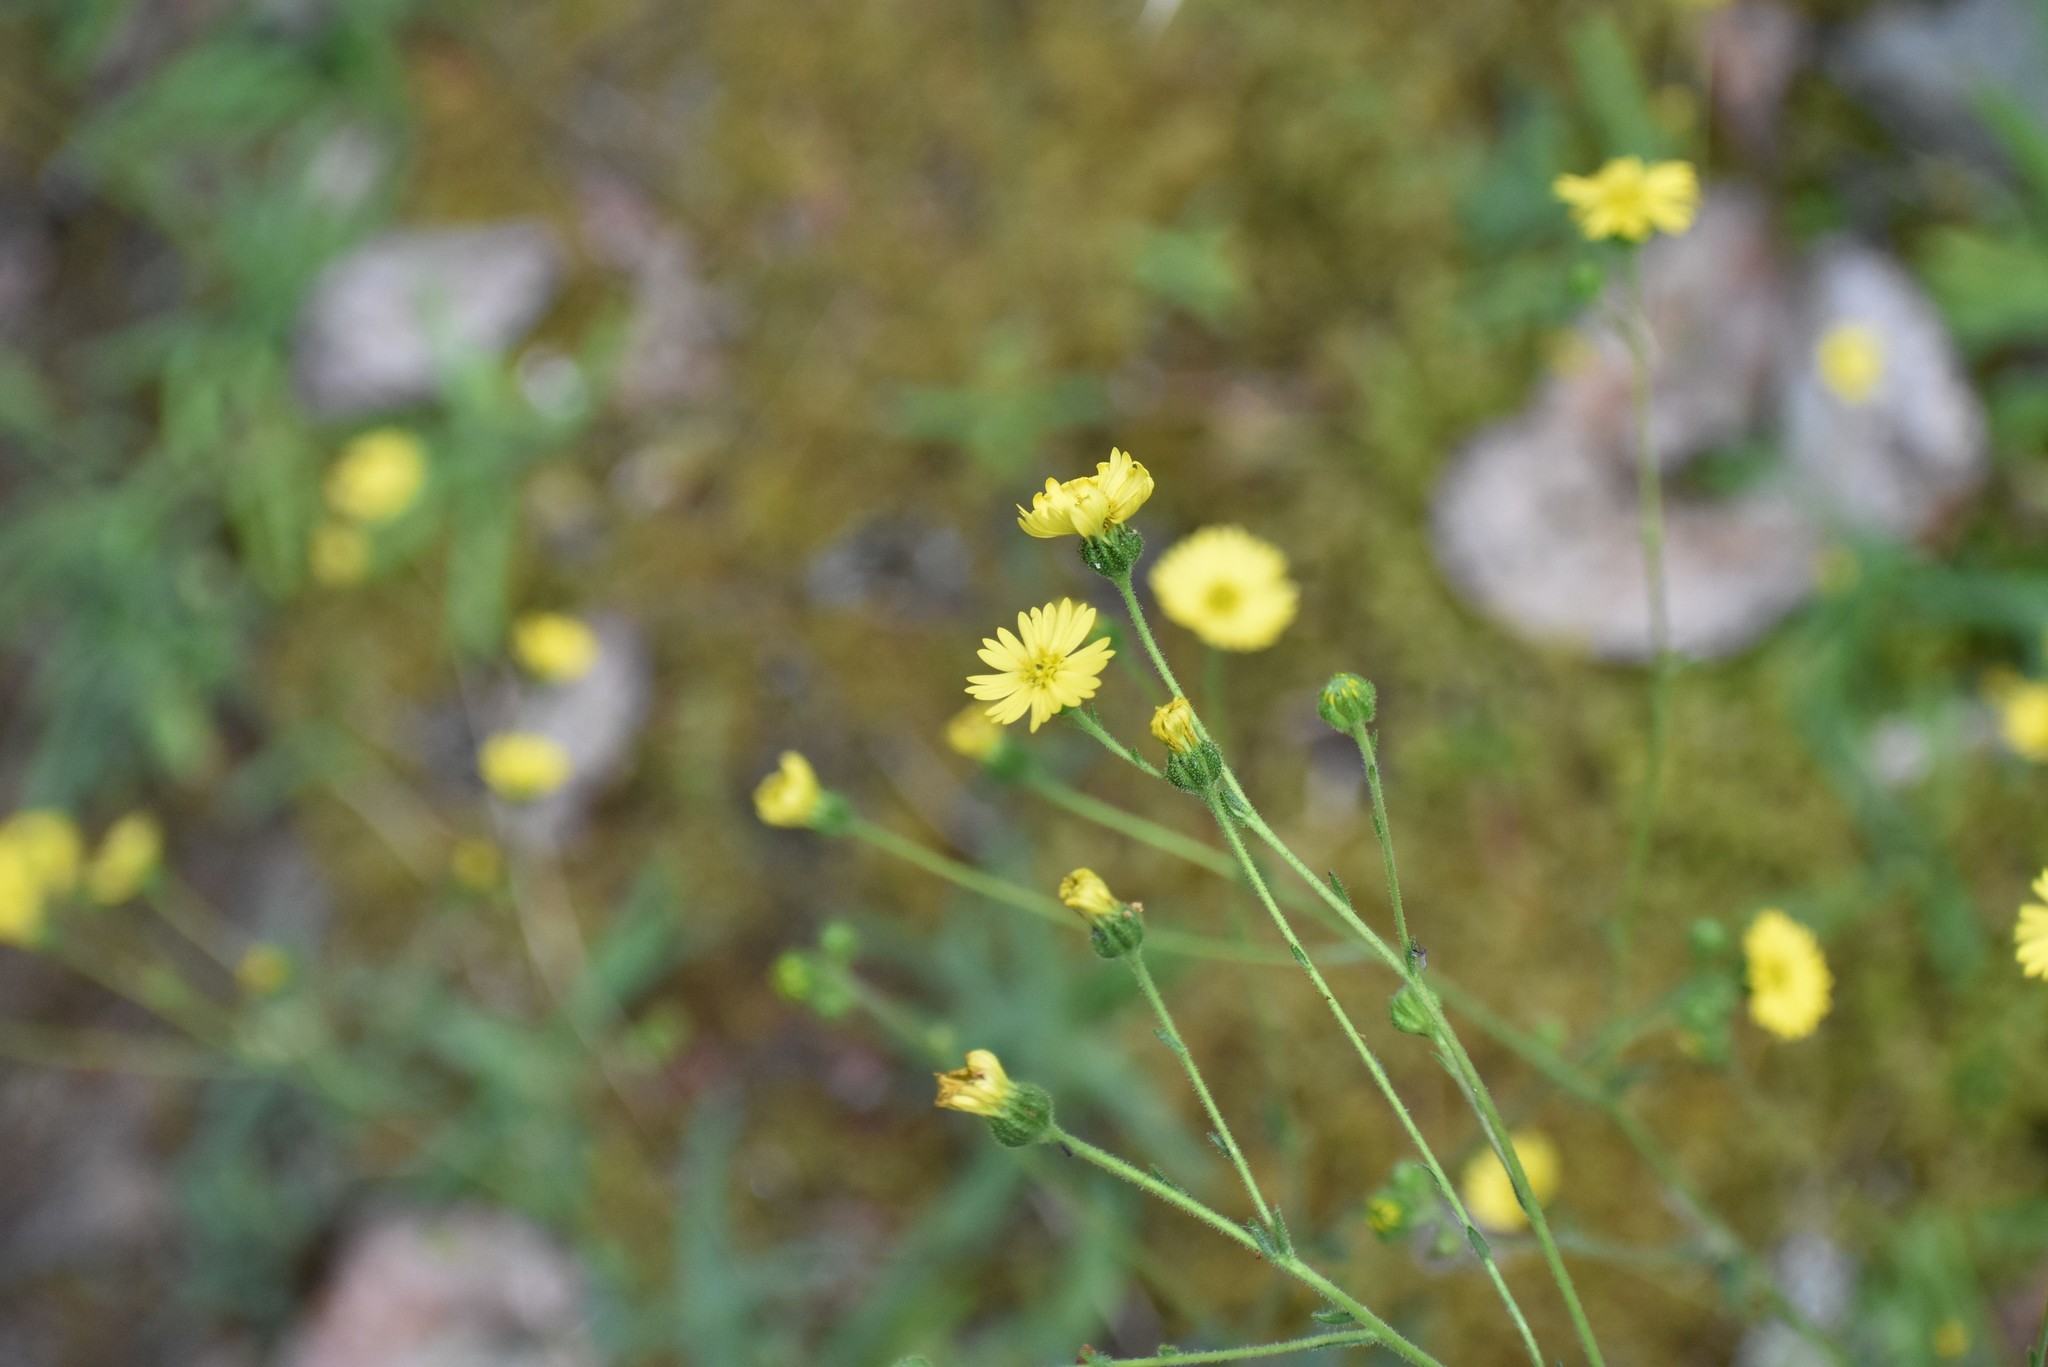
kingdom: Plantae
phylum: Tracheophyta
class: Magnoliopsida
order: Asterales
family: Asteraceae
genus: Anisocarpus
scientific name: Anisocarpus madioides
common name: Woodland madia
